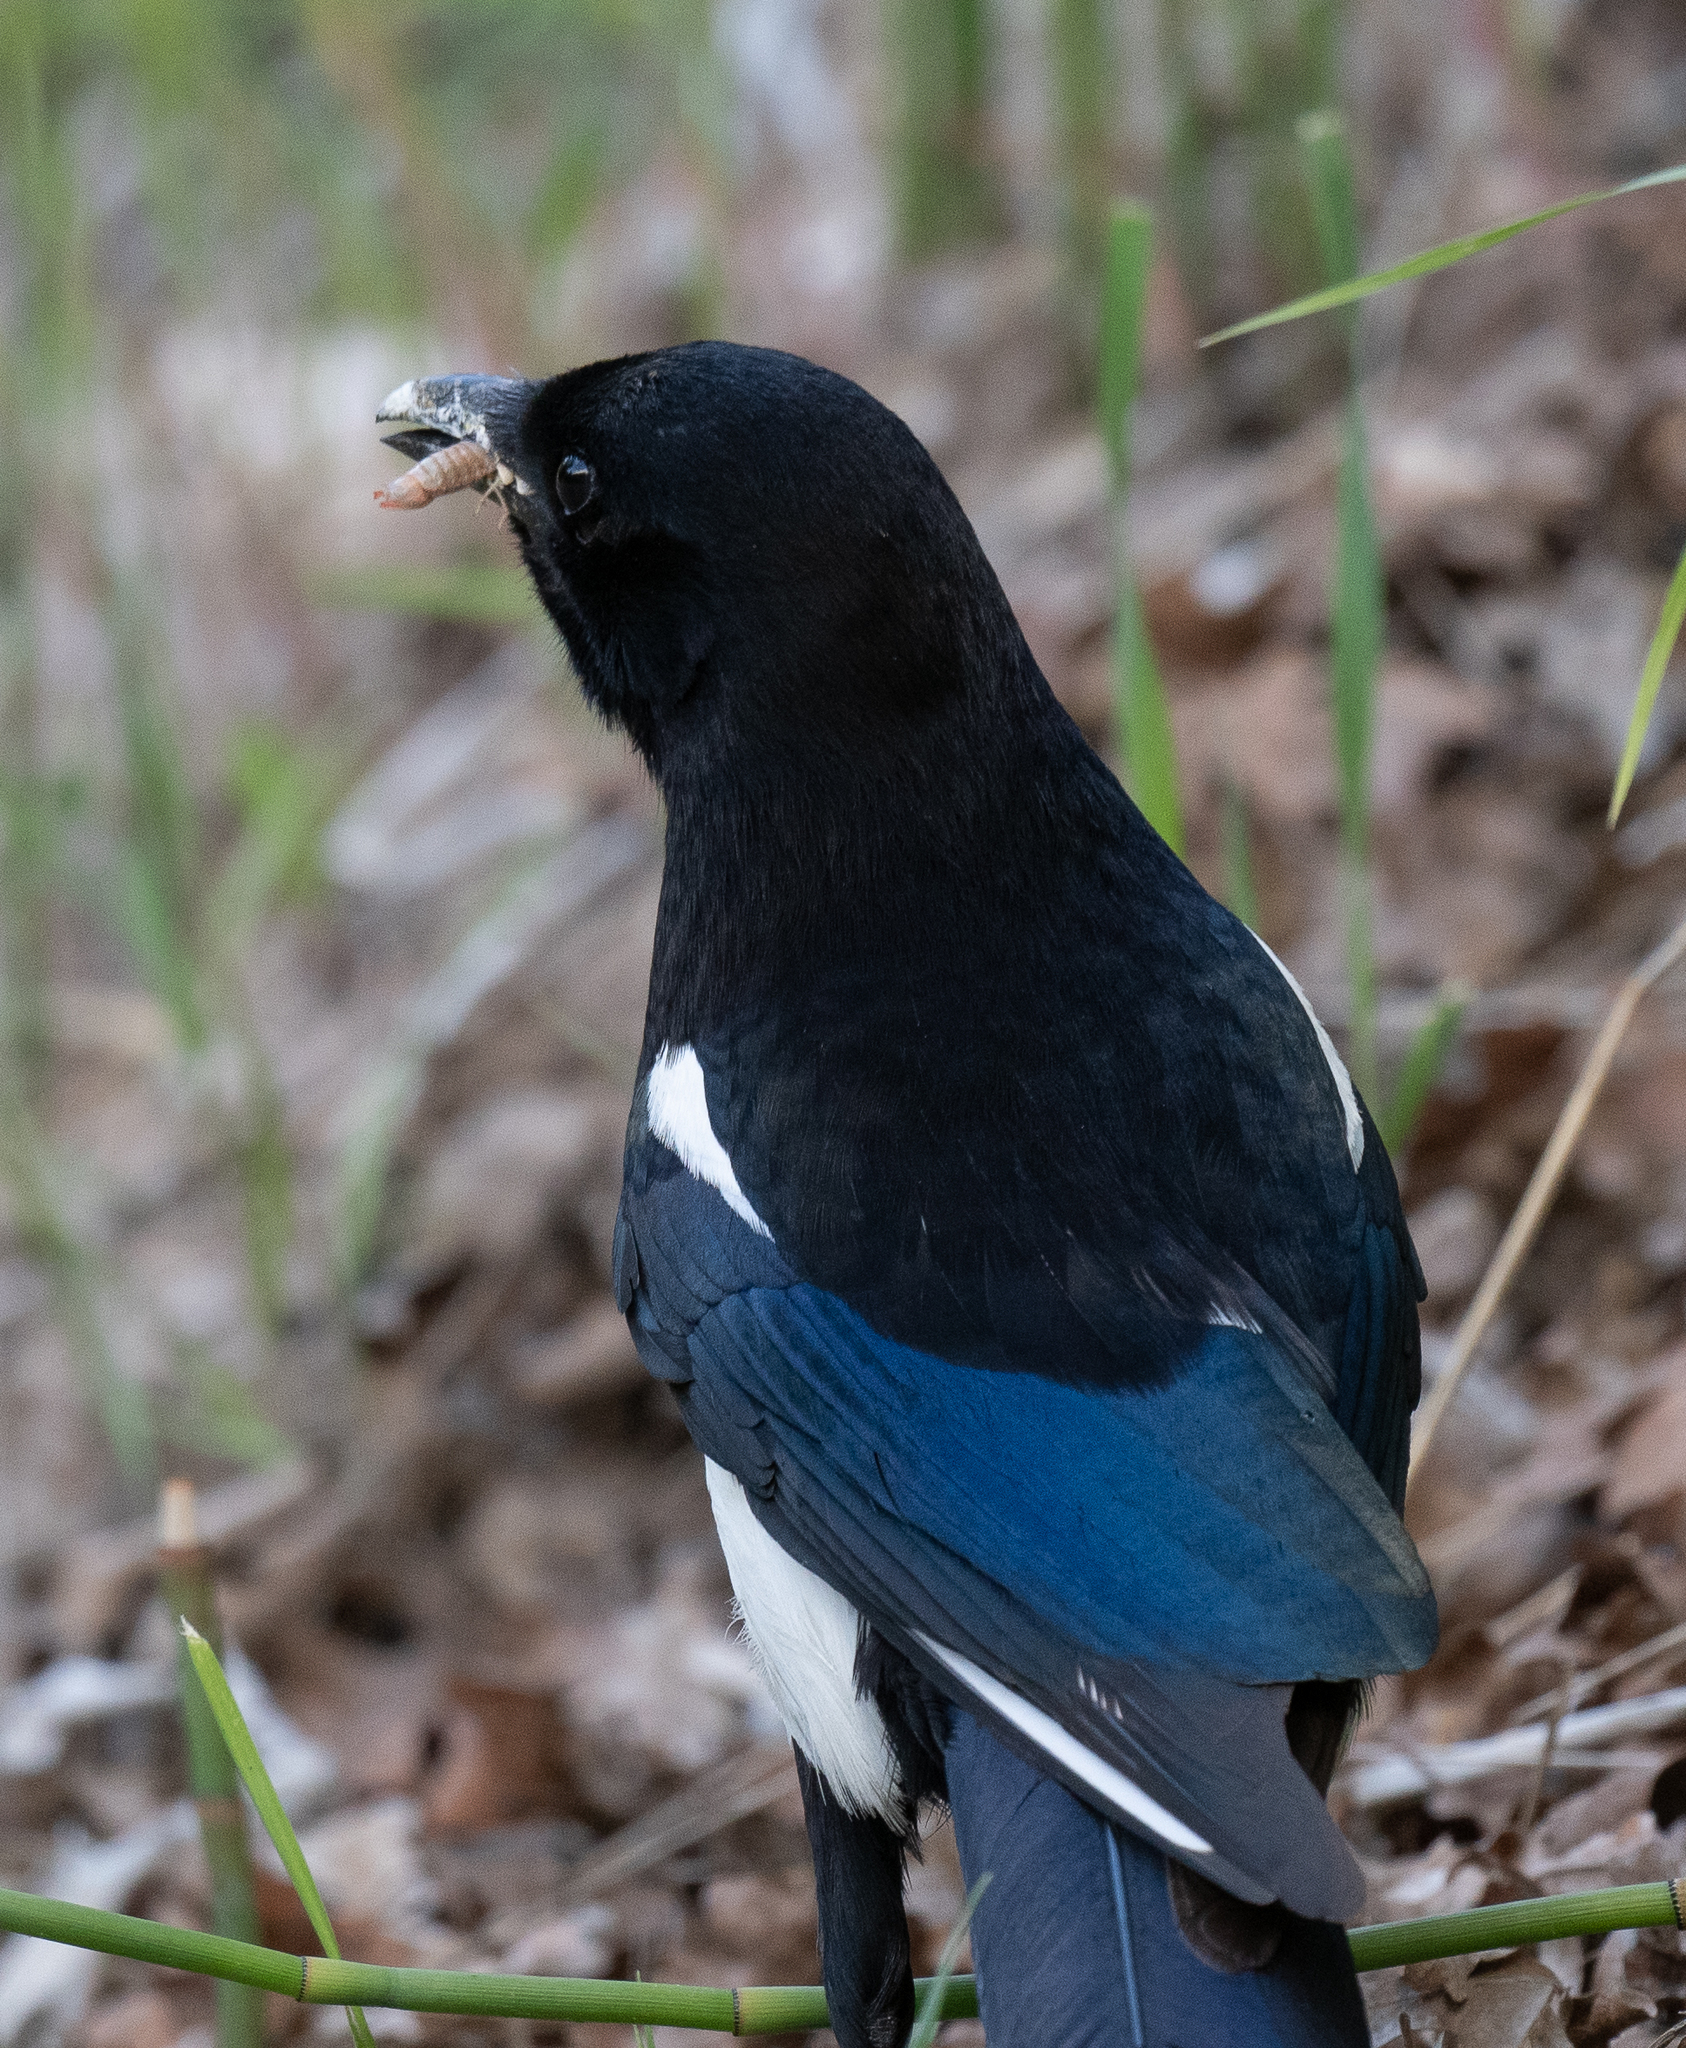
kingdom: Animalia
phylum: Chordata
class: Aves
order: Passeriformes
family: Corvidae
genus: Pica
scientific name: Pica hudsonia
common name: Black-billed magpie
